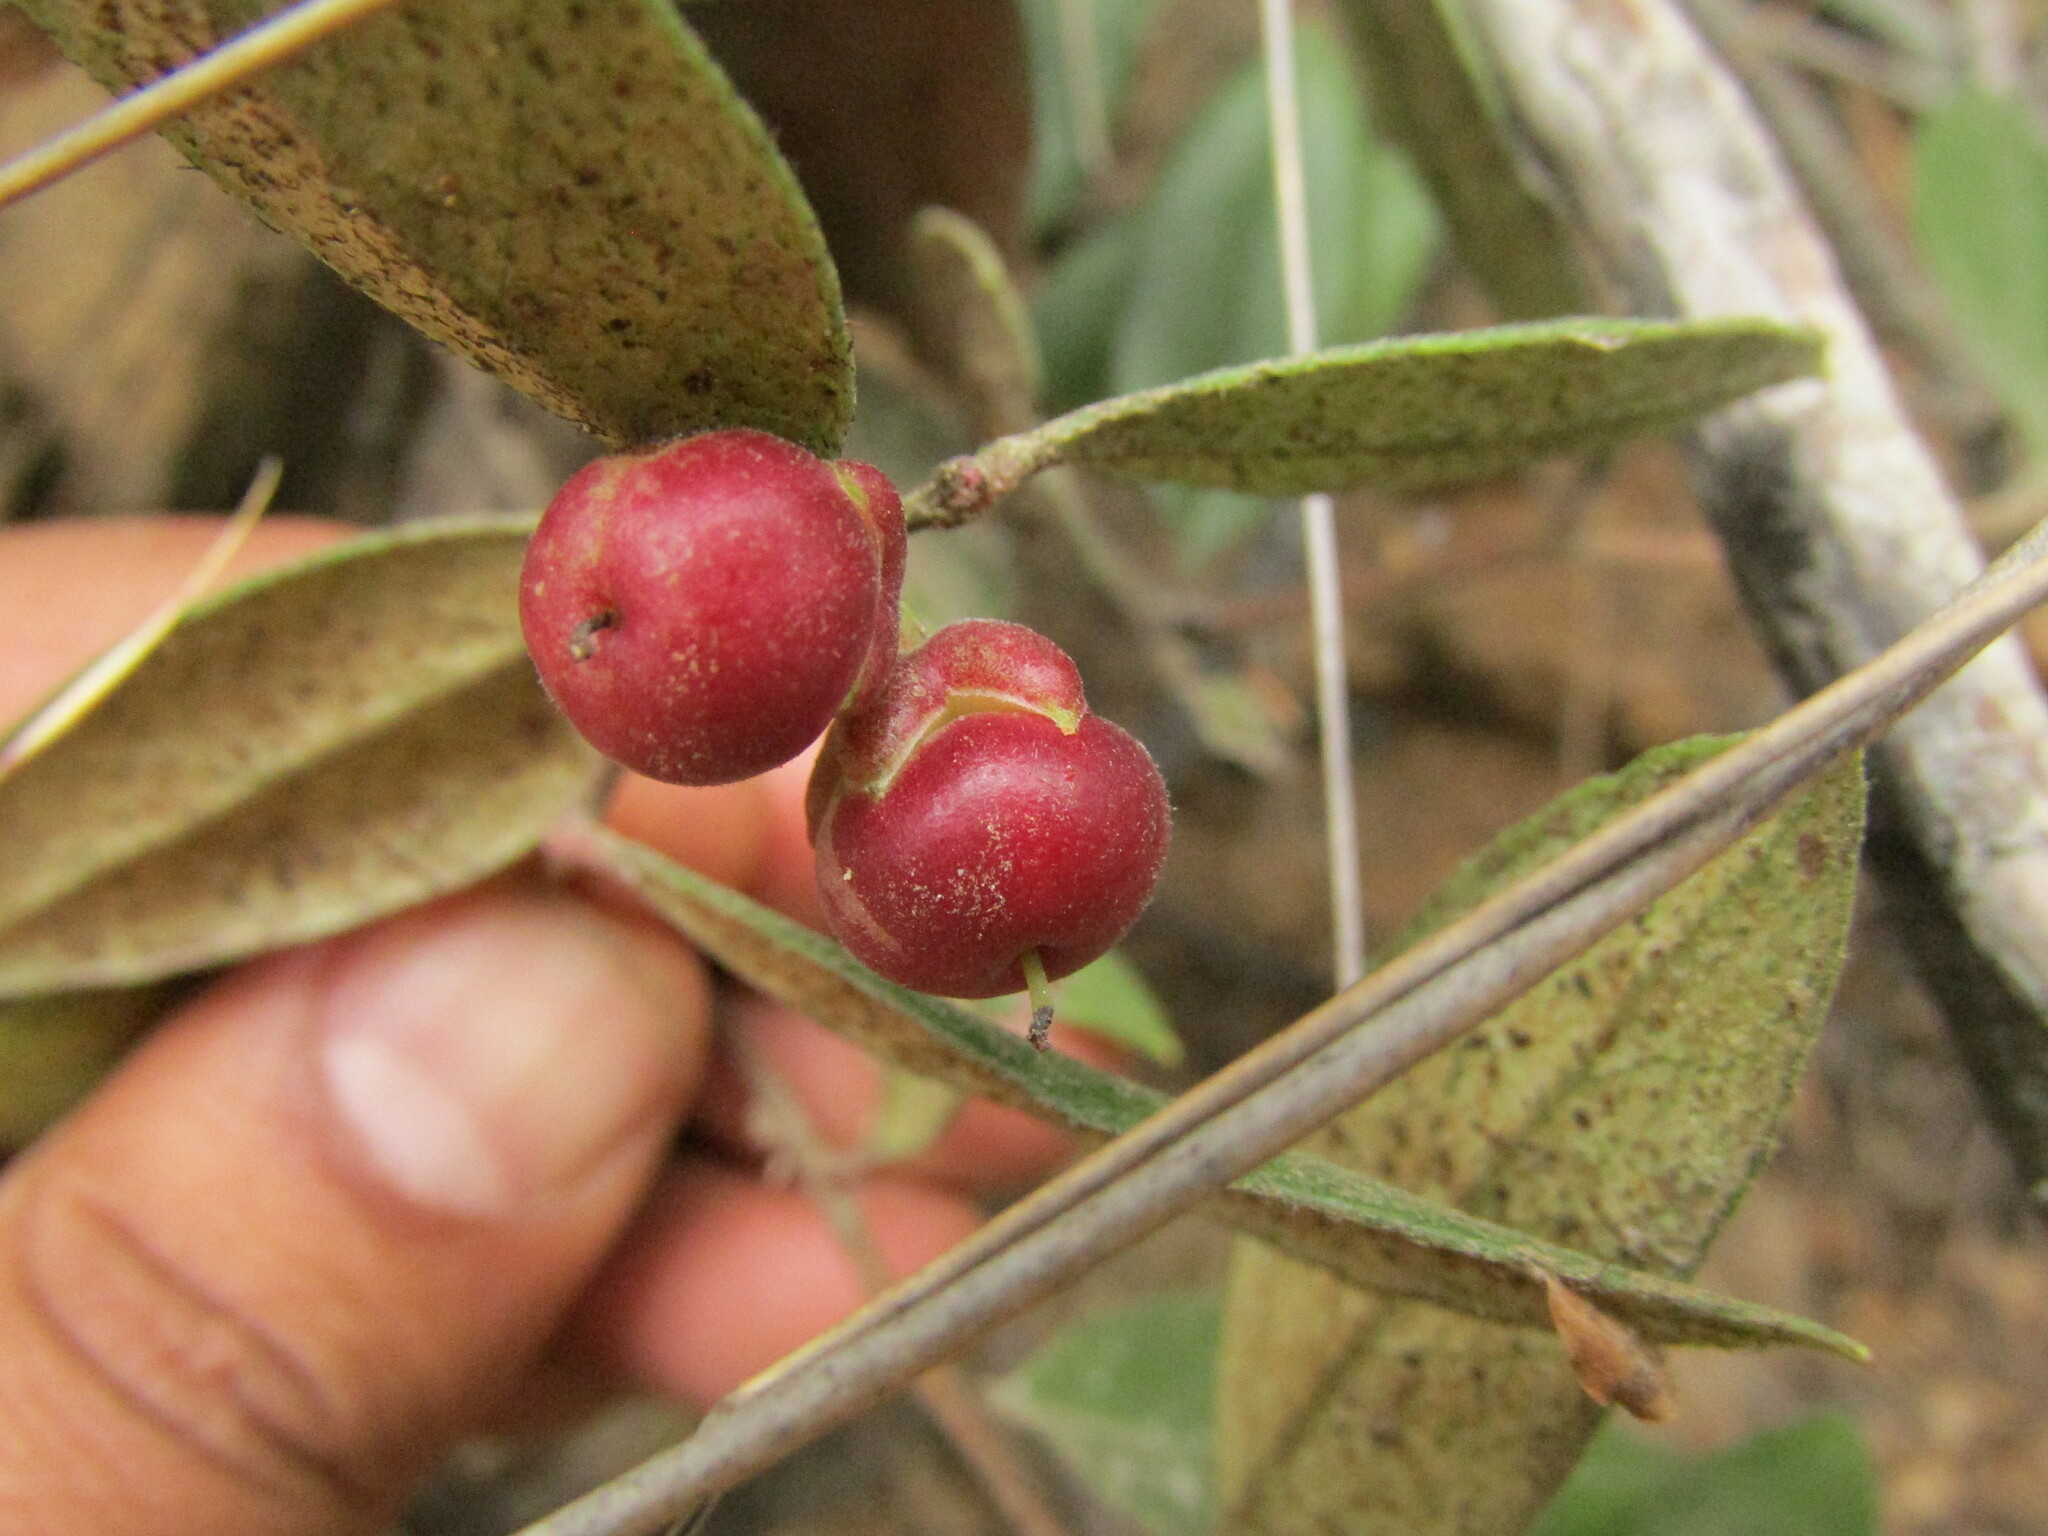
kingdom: Plantae
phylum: Tracheophyta
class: Magnoliopsida
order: Ericales
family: Ericaceae
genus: Gaultheria
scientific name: Gaultheria insana
